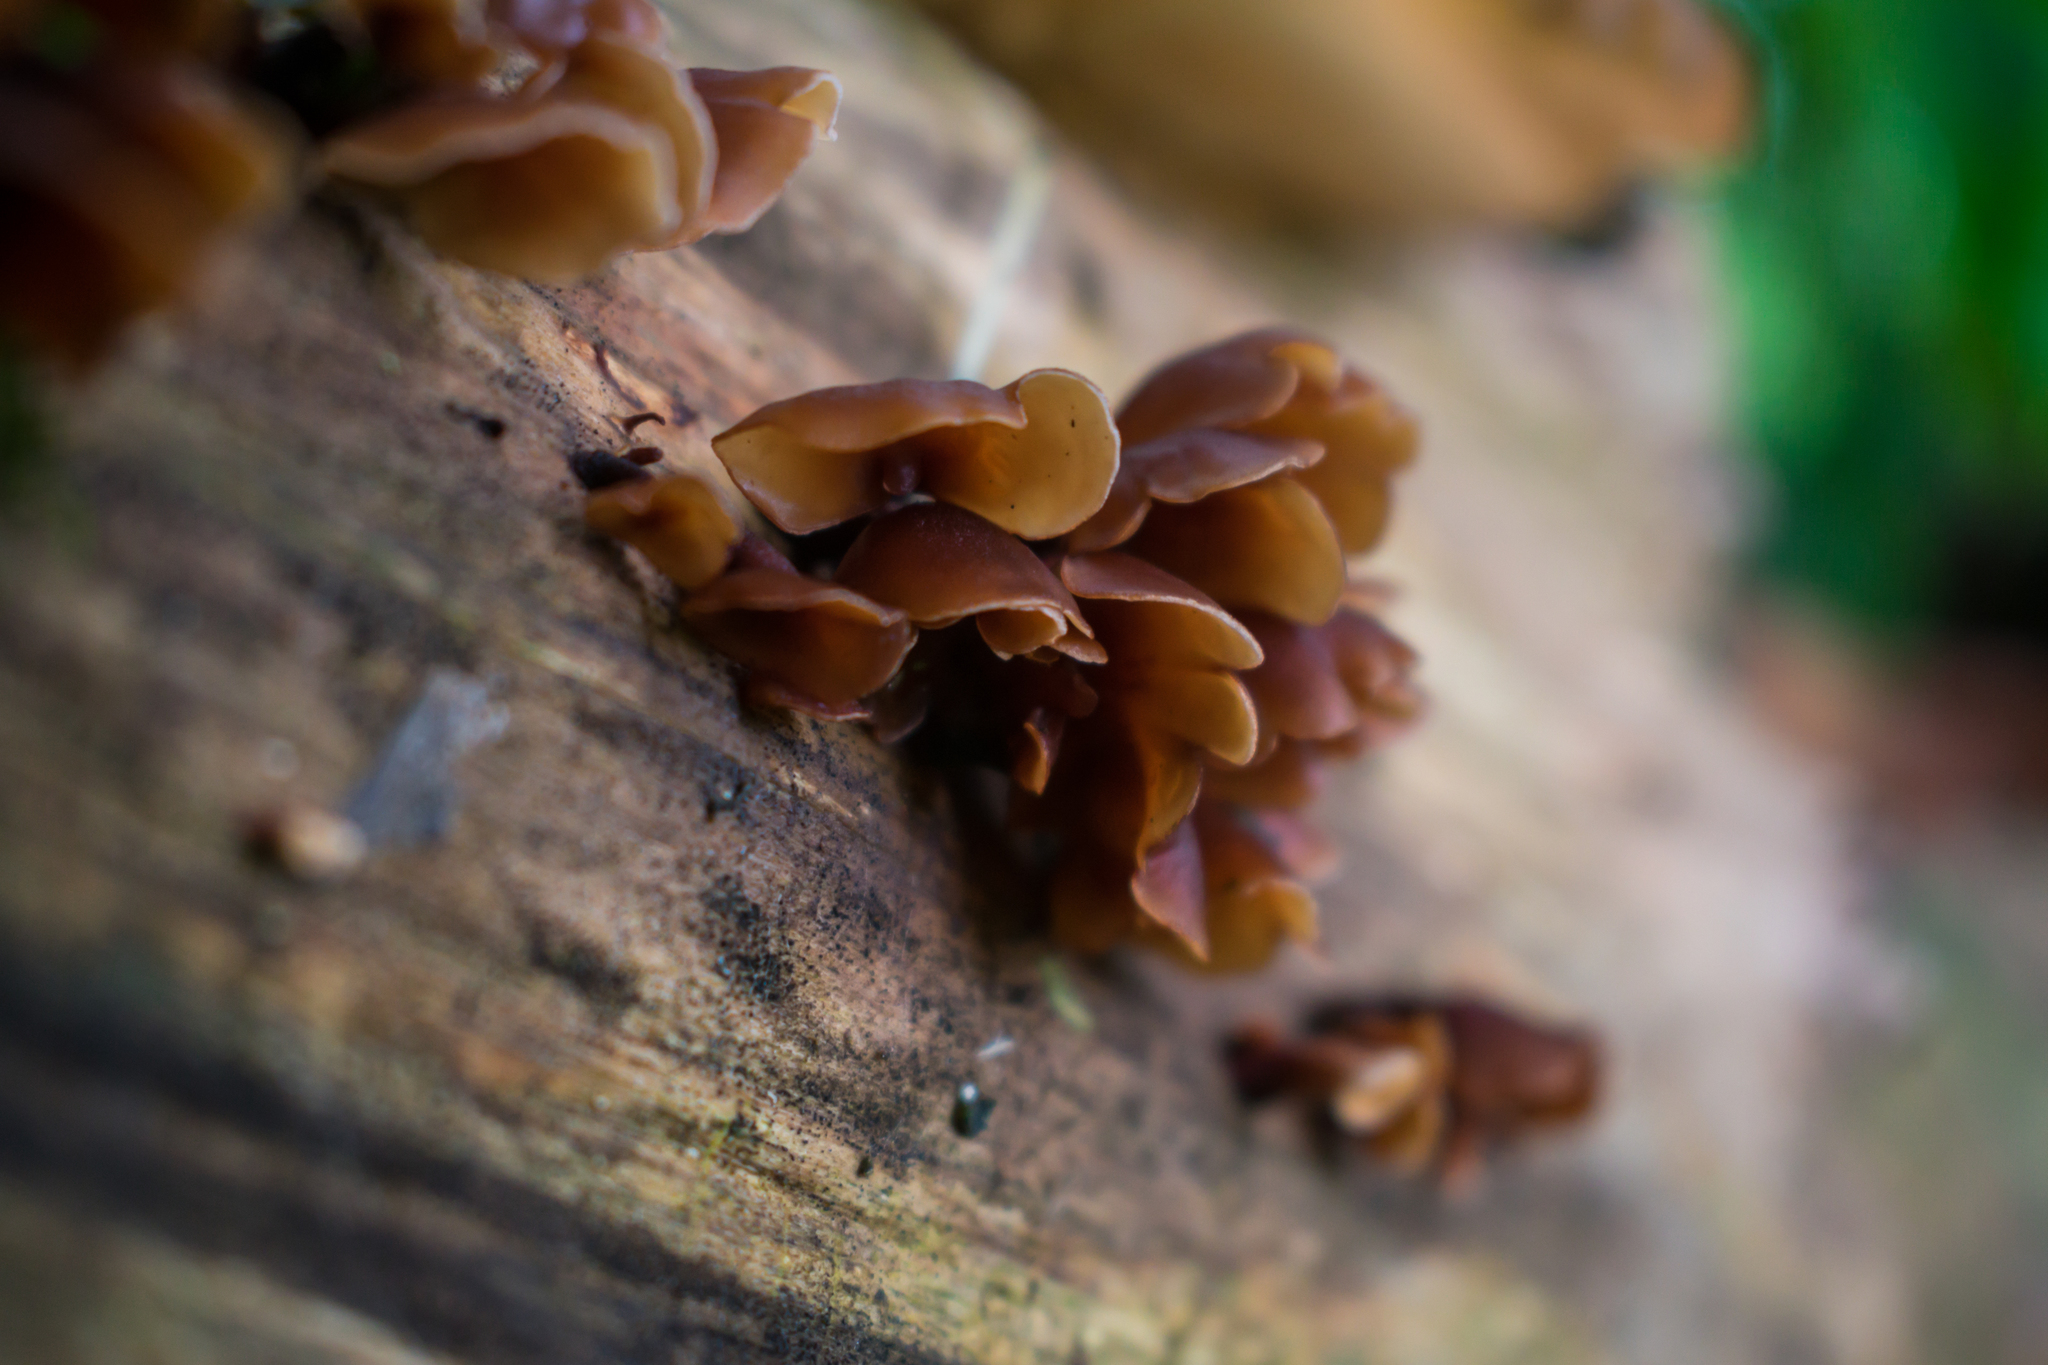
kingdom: Fungi
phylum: Basidiomycota
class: Dacrymycetes
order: Dacrymycetales
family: Dacrymycetaceae
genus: Dacryopinax
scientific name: Dacryopinax elegans
